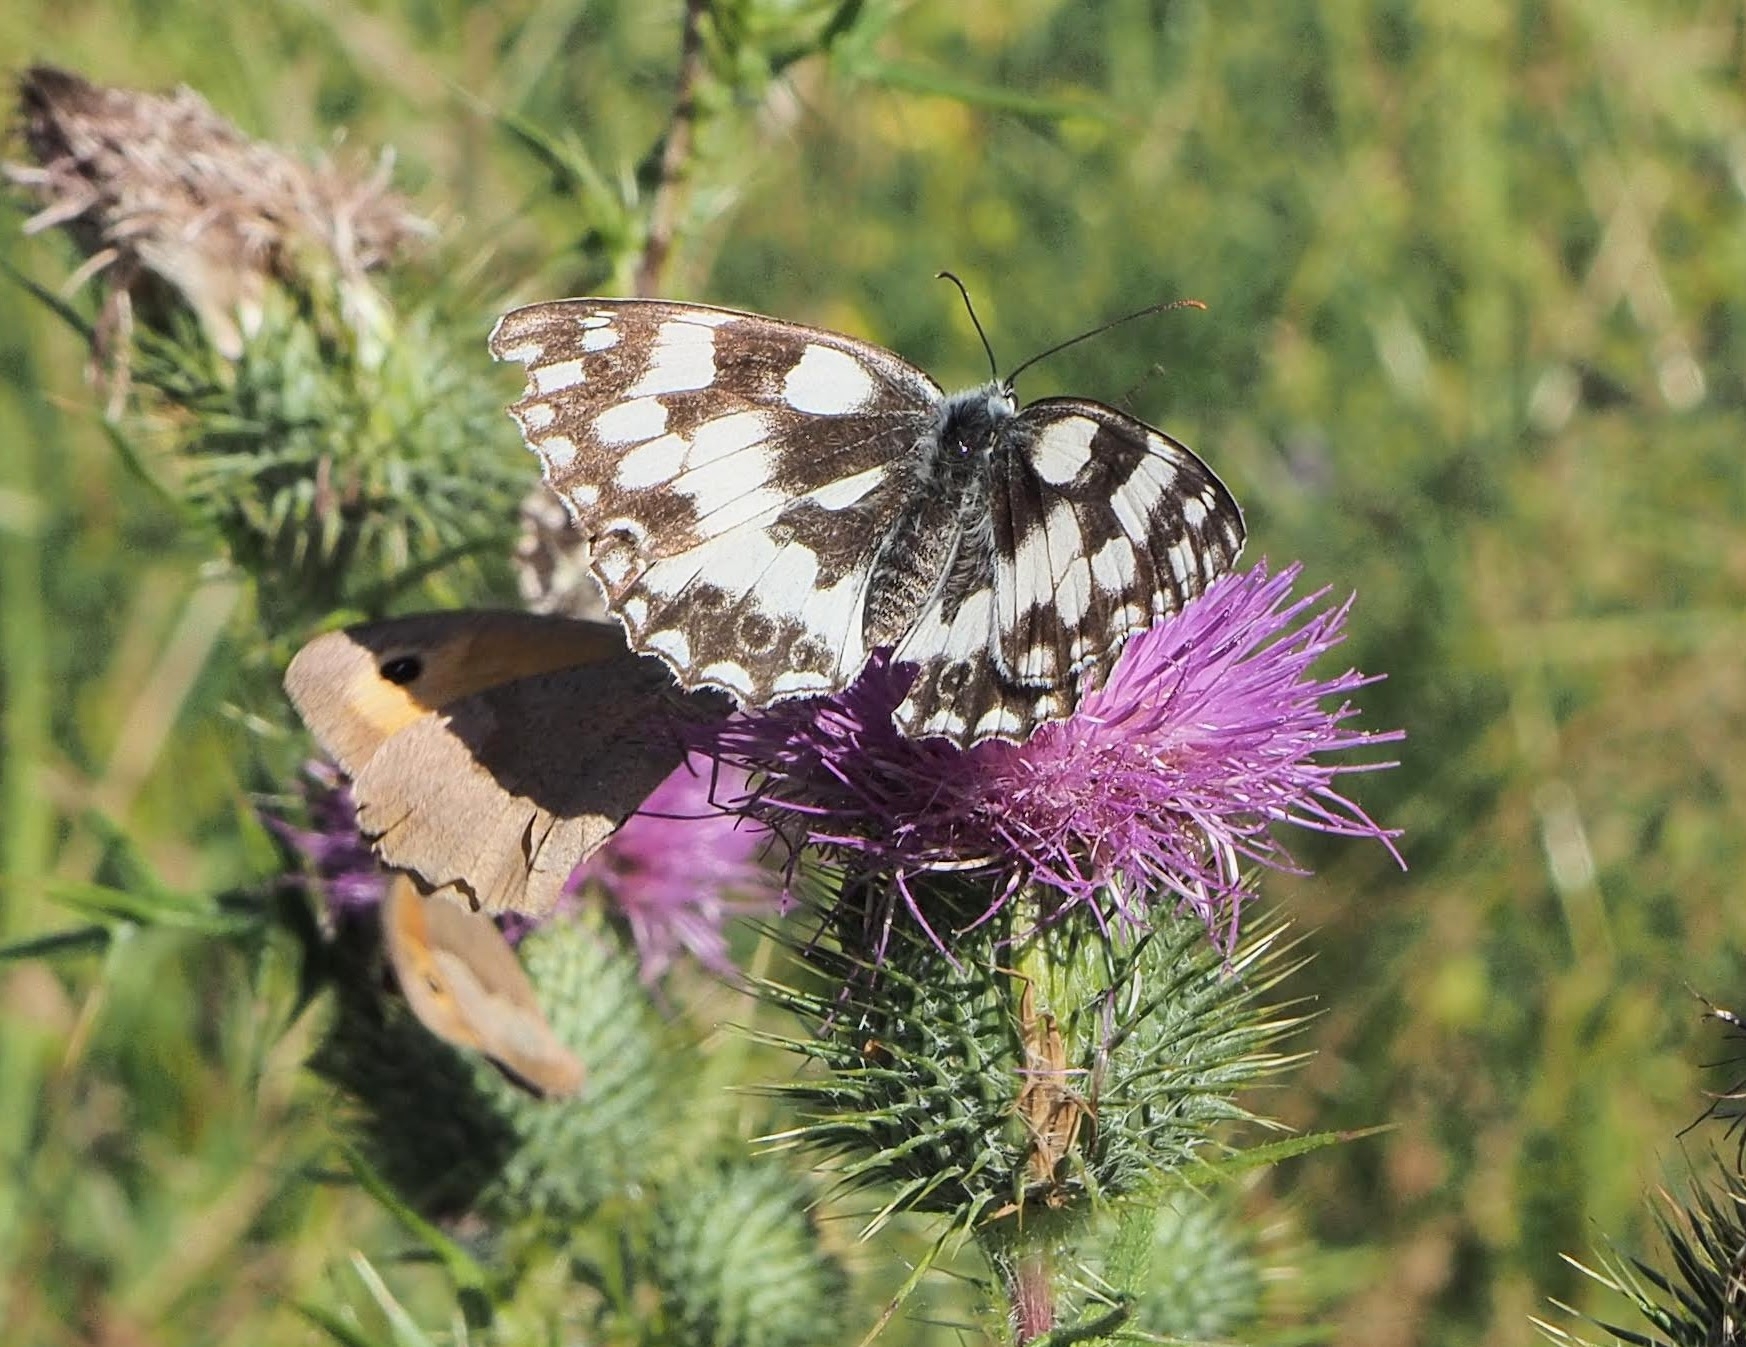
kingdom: Animalia
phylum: Arthropoda
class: Insecta
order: Lepidoptera
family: Nymphalidae
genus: Melanargia
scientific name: Melanargia galathea
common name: Marbled white
